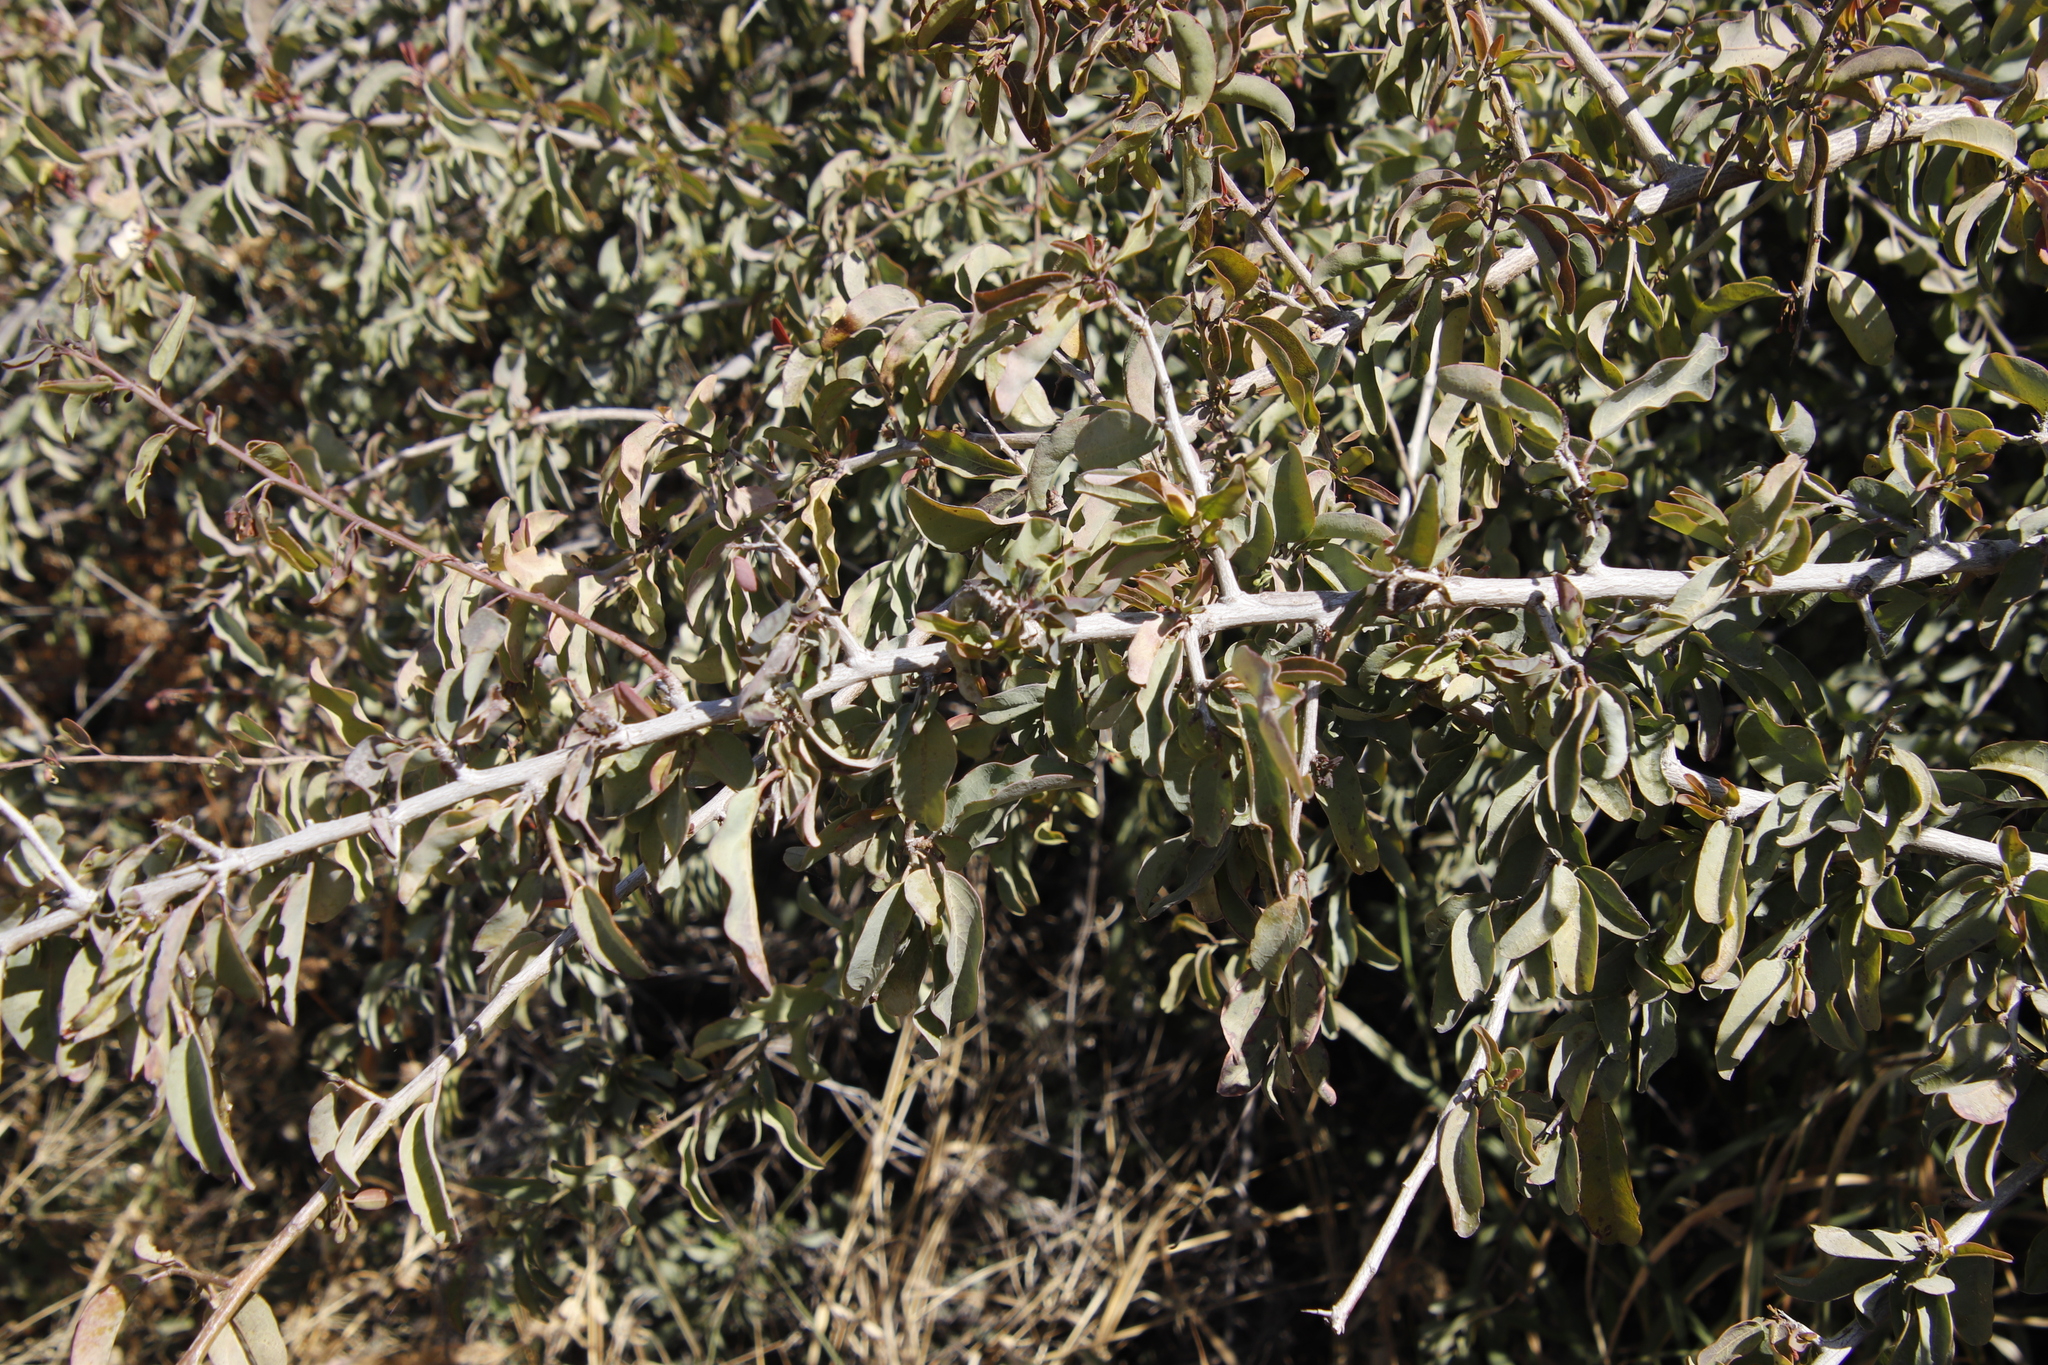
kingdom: Plantae
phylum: Tracheophyta
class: Magnoliopsida
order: Santalales
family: Ximeniaceae
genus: Ximenia
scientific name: Ximenia americana
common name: Tallowwood
